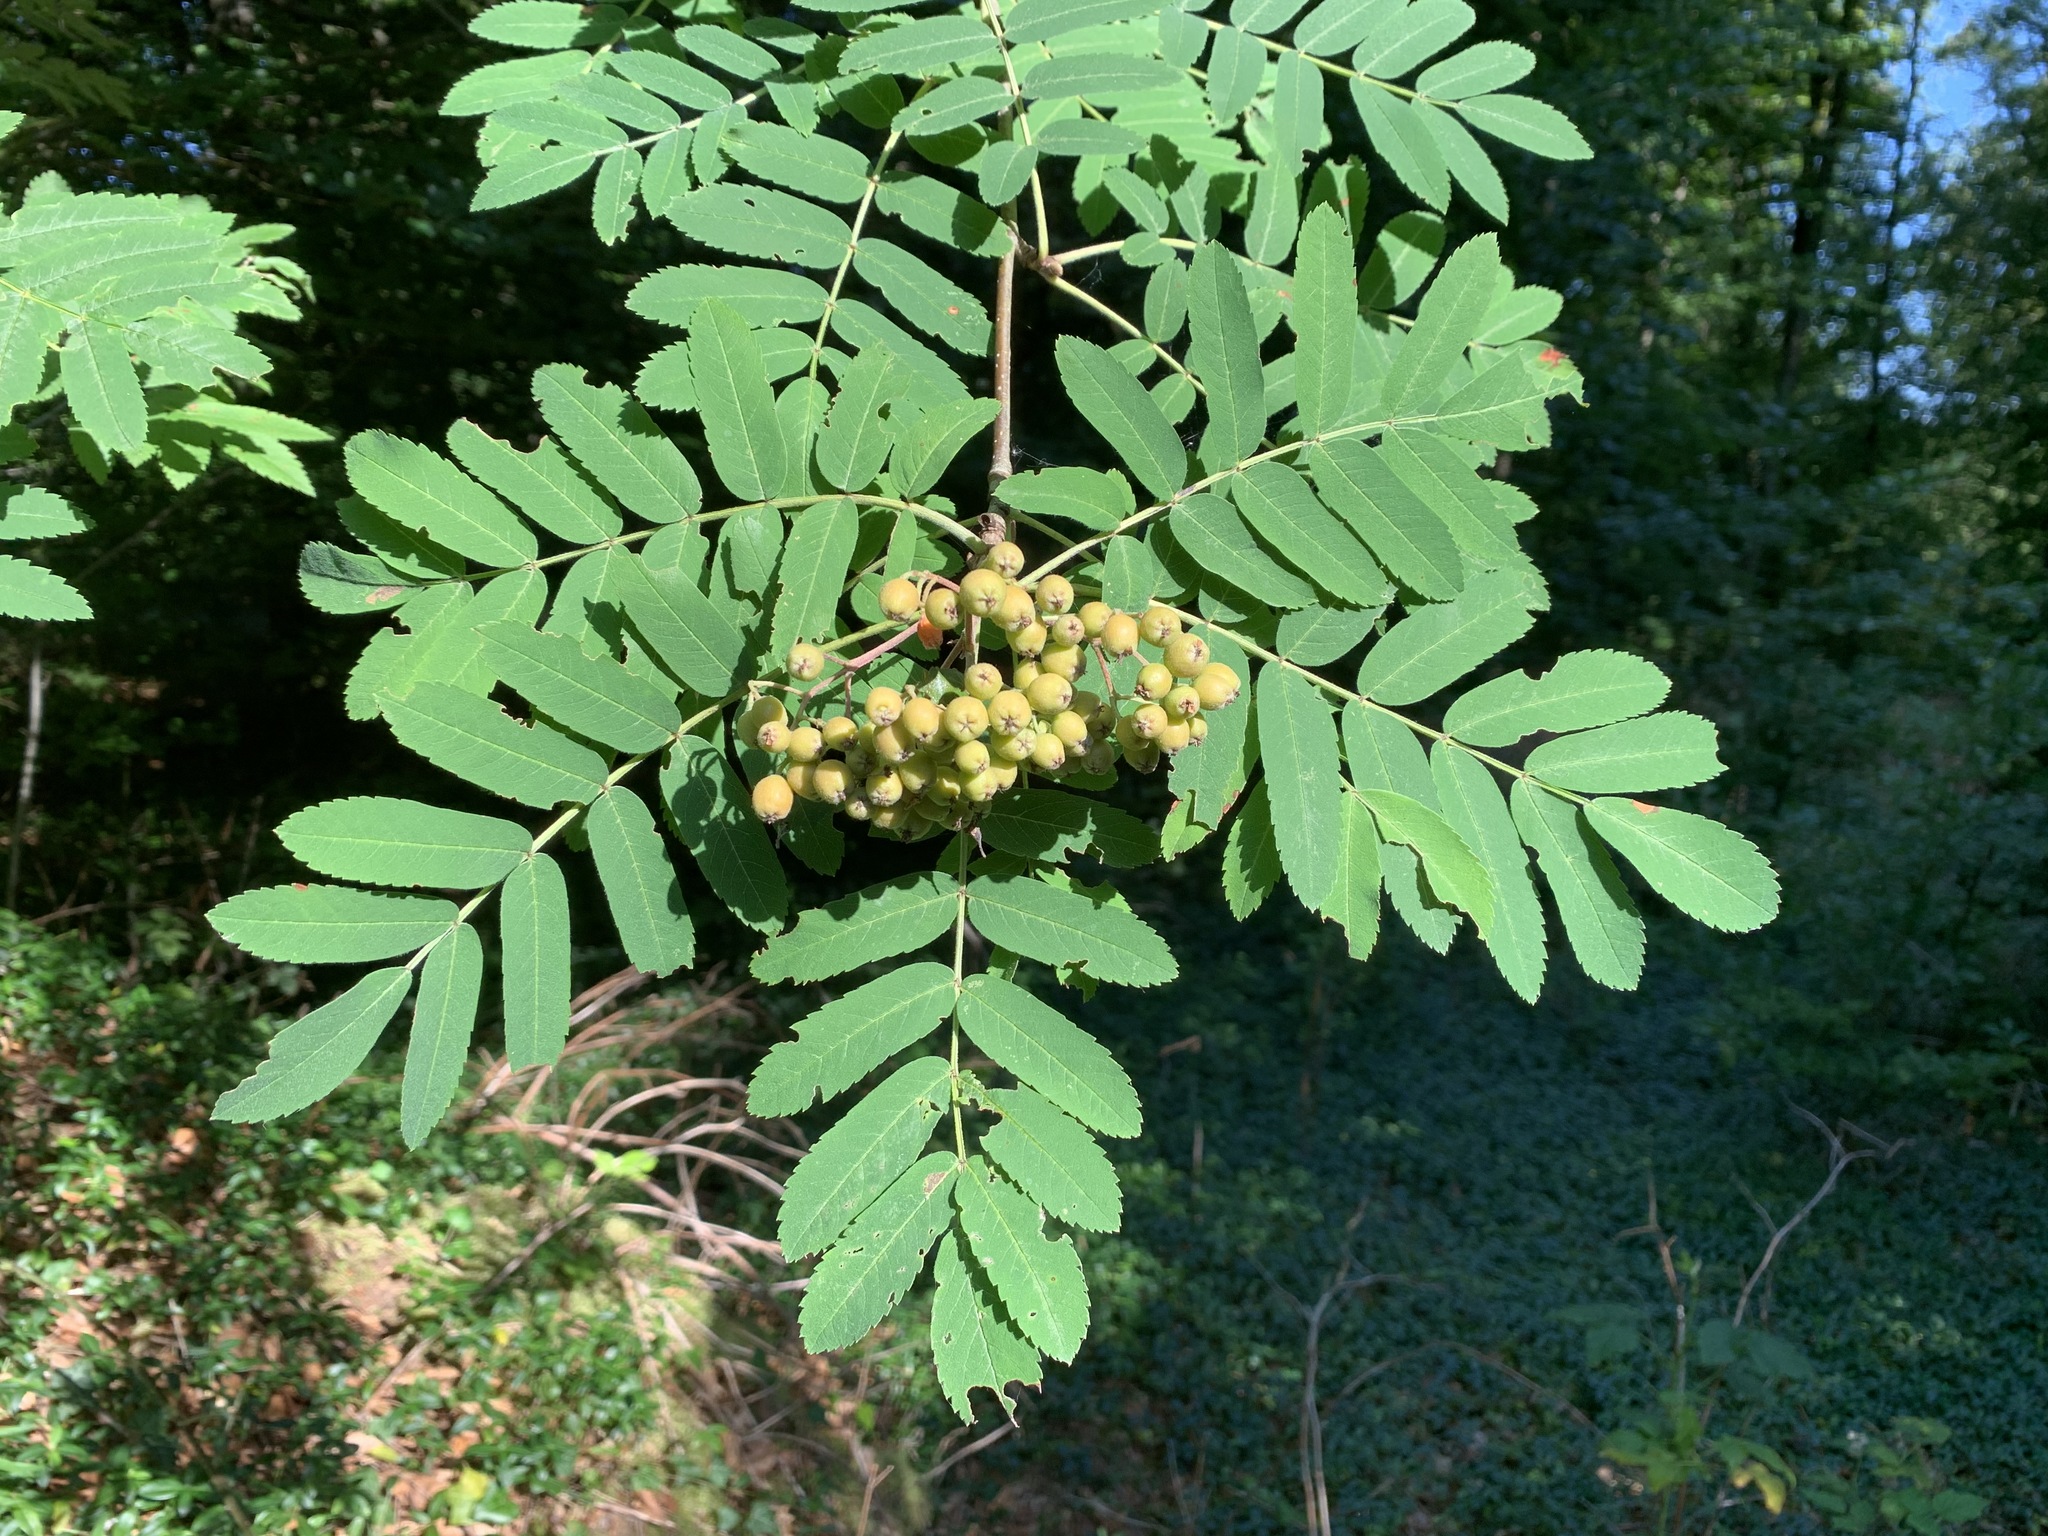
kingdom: Plantae
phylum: Tracheophyta
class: Magnoliopsida
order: Rosales
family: Rosaceae
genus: Sorbus
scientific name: Sorbus aucuparia
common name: Rowan
